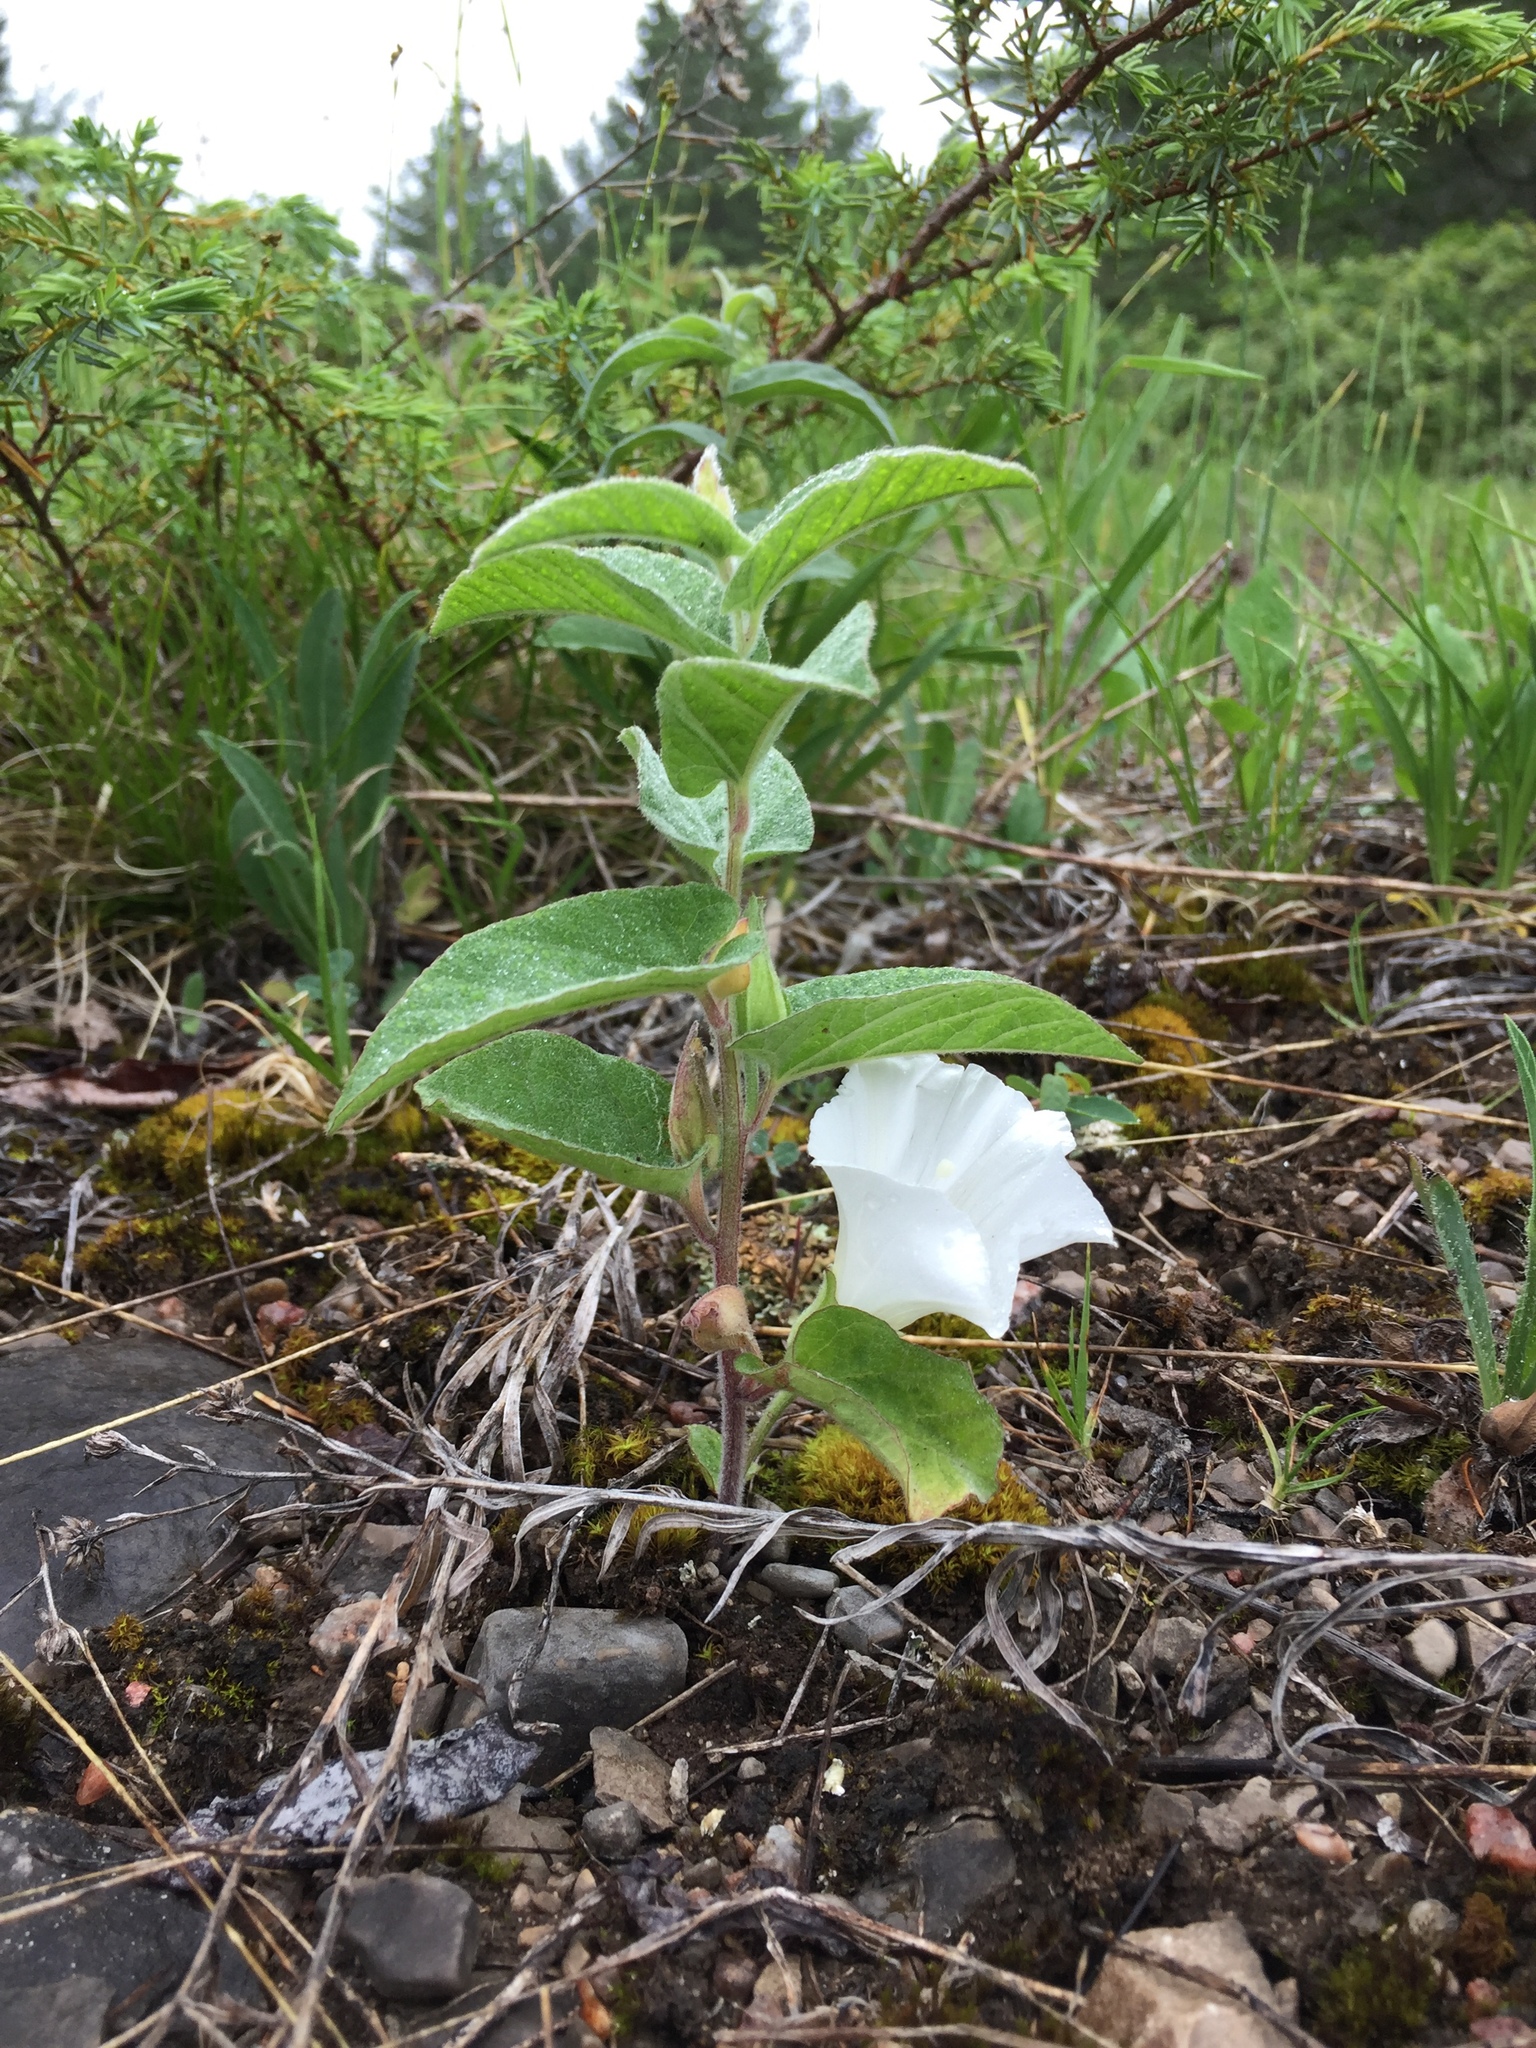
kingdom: Plantae
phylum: Tracheophyta
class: Magnoliopsida
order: Solanales
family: Convolvulaceae
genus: Calystegia
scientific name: Calystegia spithamaea
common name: Dwarf bindweed
